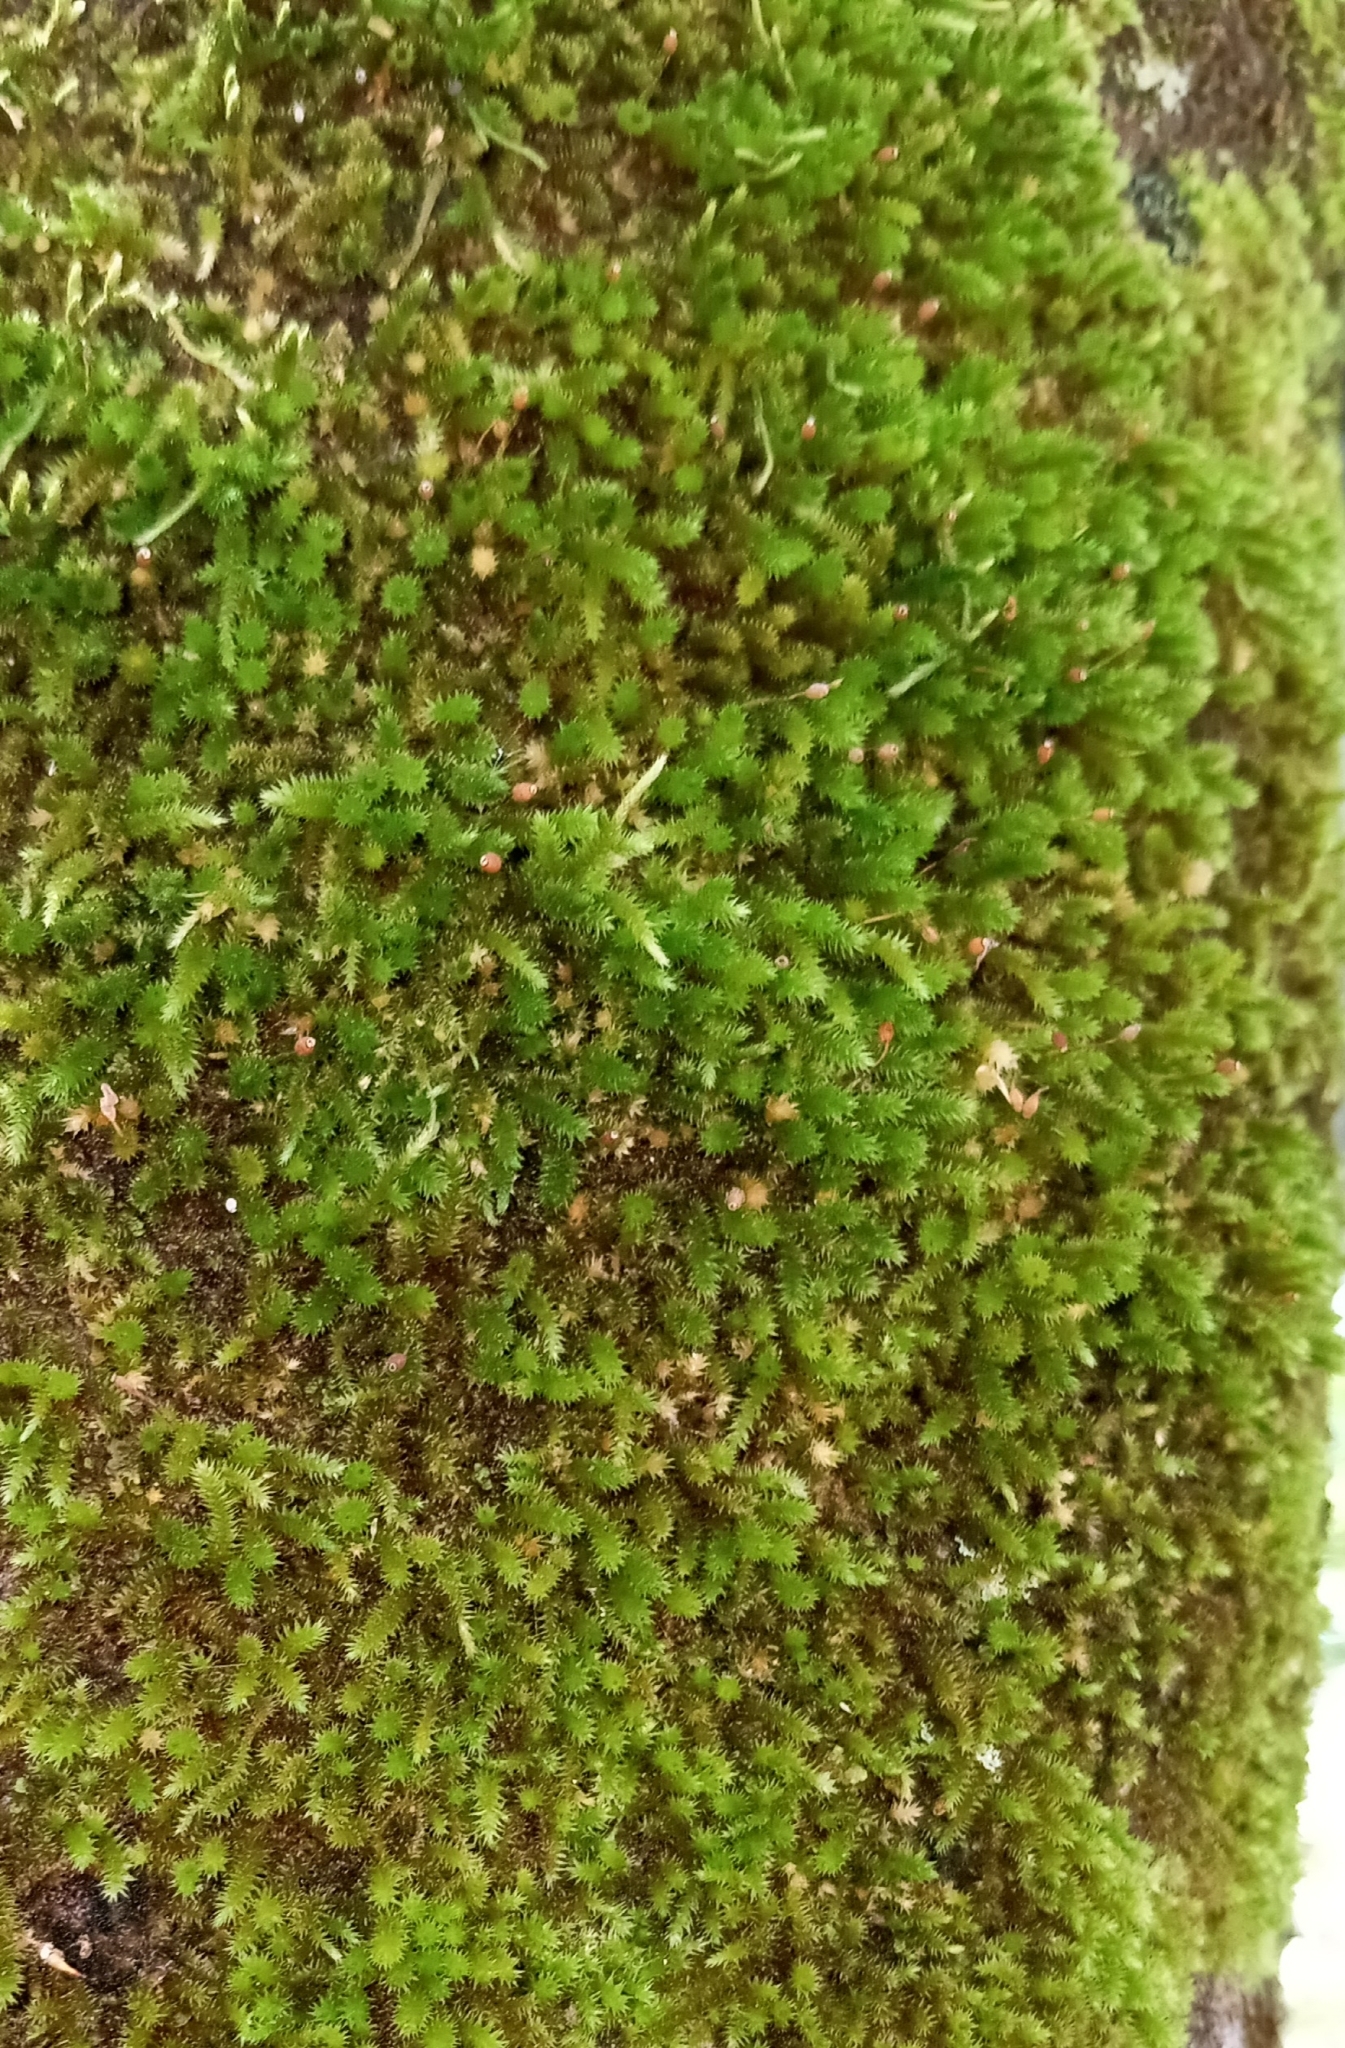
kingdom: Plantae
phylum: Bryophyta
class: Bryopsida
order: Hypnales
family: Leucodontaceae
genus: Leucodon
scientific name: Leucodon julaceus
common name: Smooth hook moss
